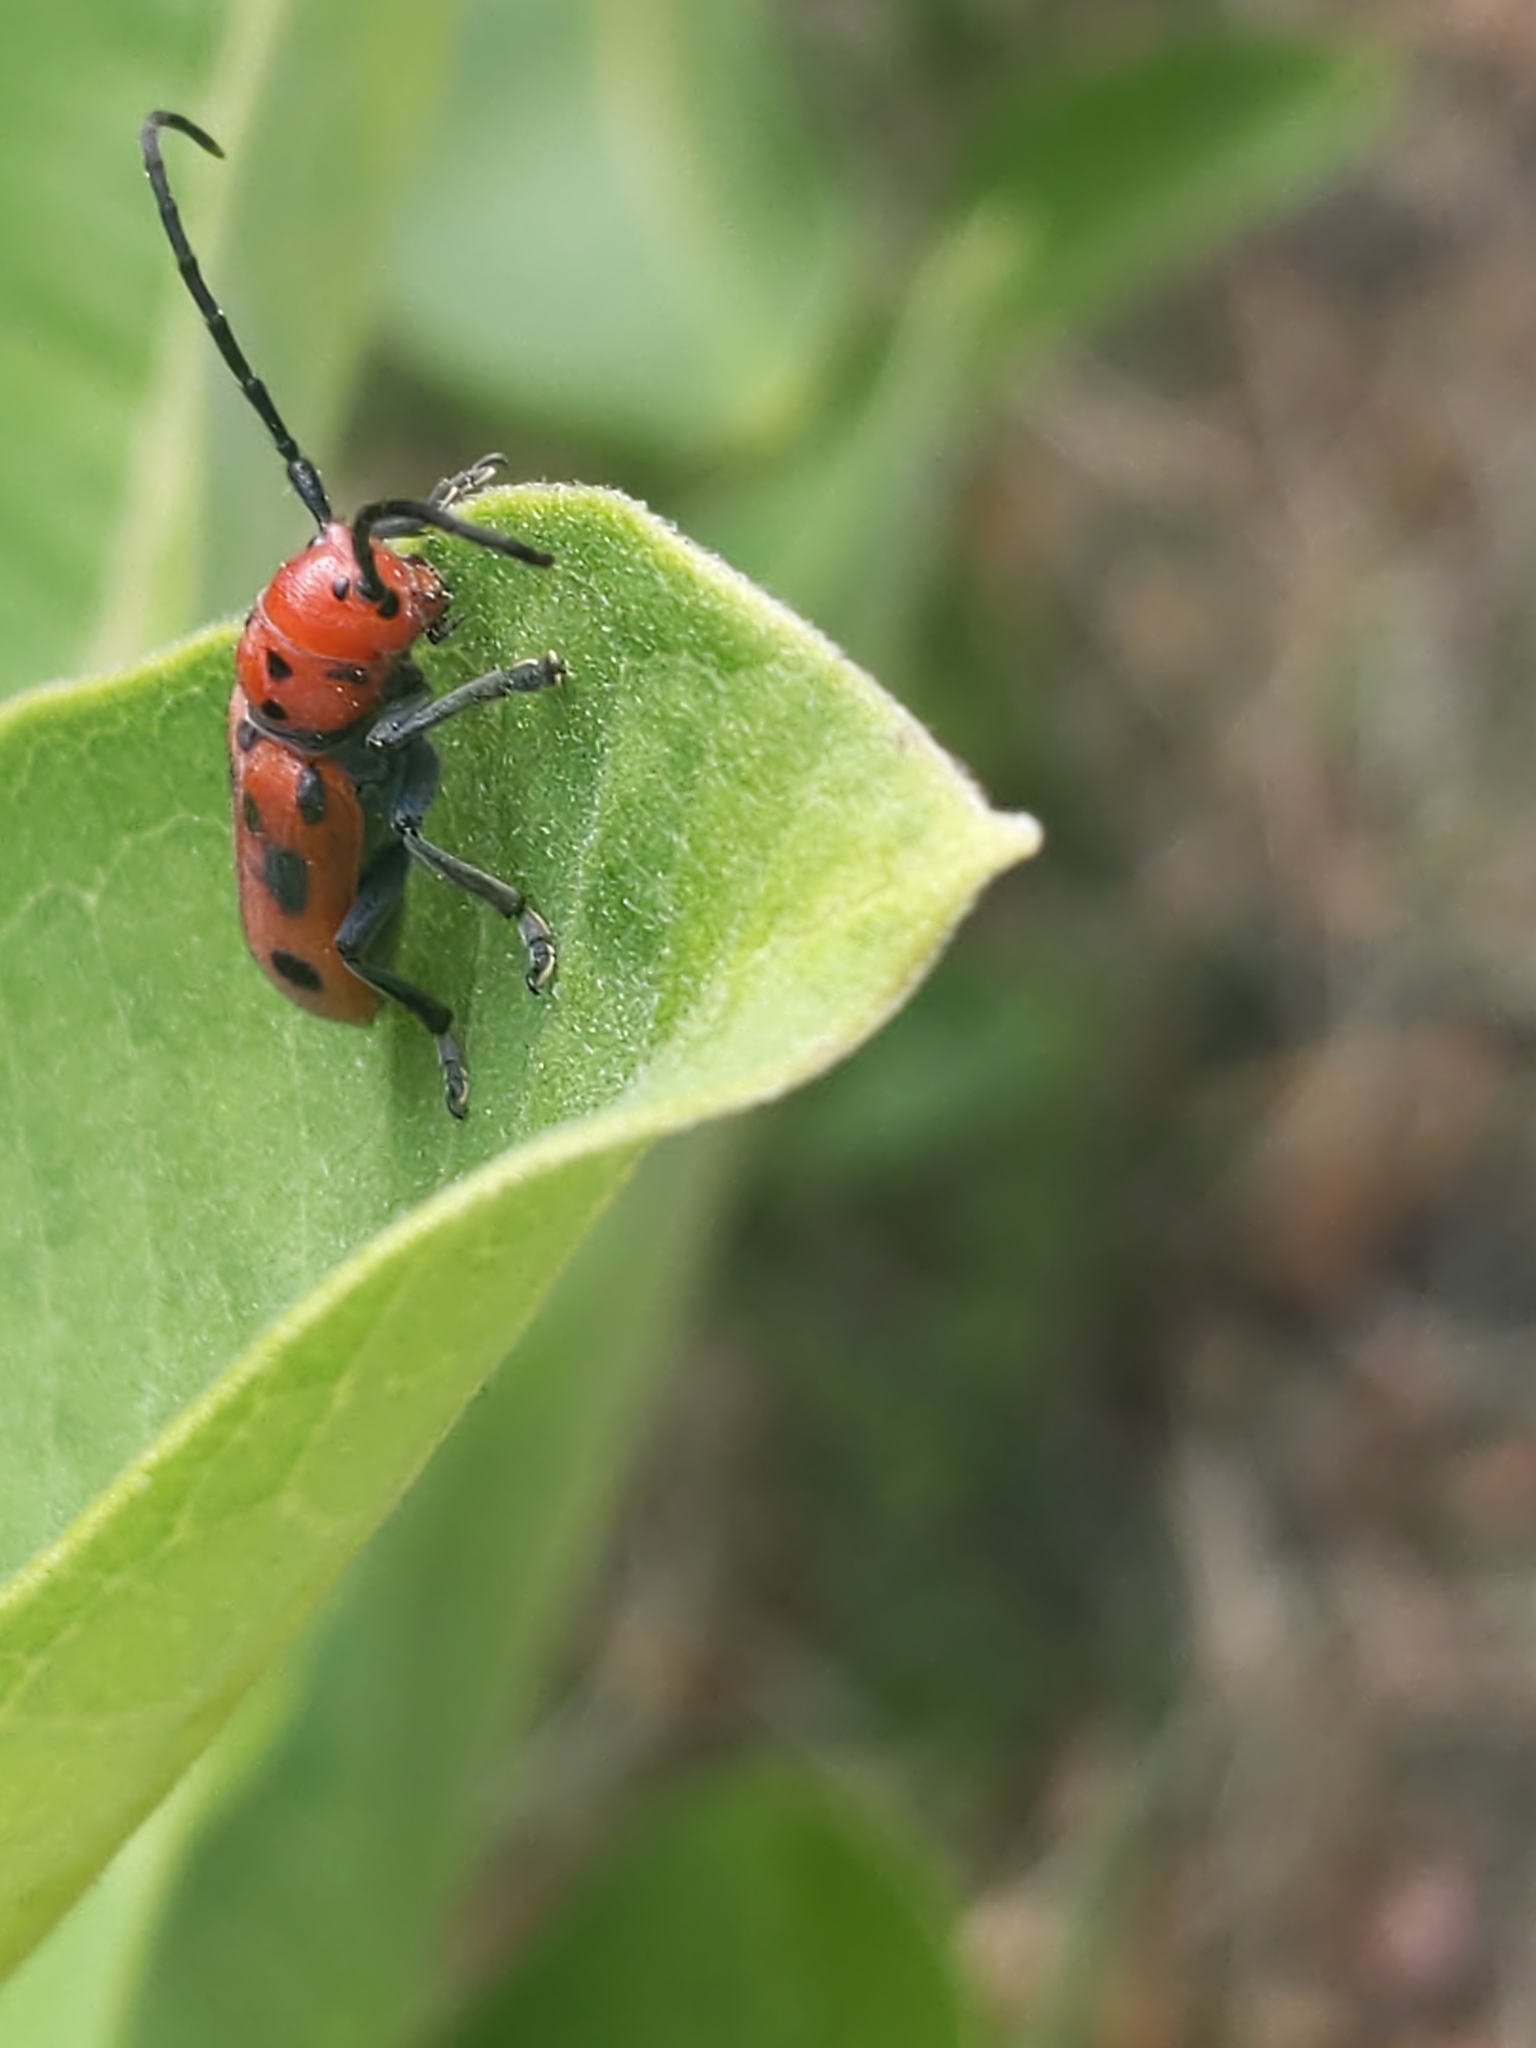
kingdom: Animalia
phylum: Arthropoda
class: Insecta
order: Coleoptera
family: Cerambycidae
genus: Tetraopes
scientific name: Tetraopes tetrophthalmus
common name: Red milkweed beetle
